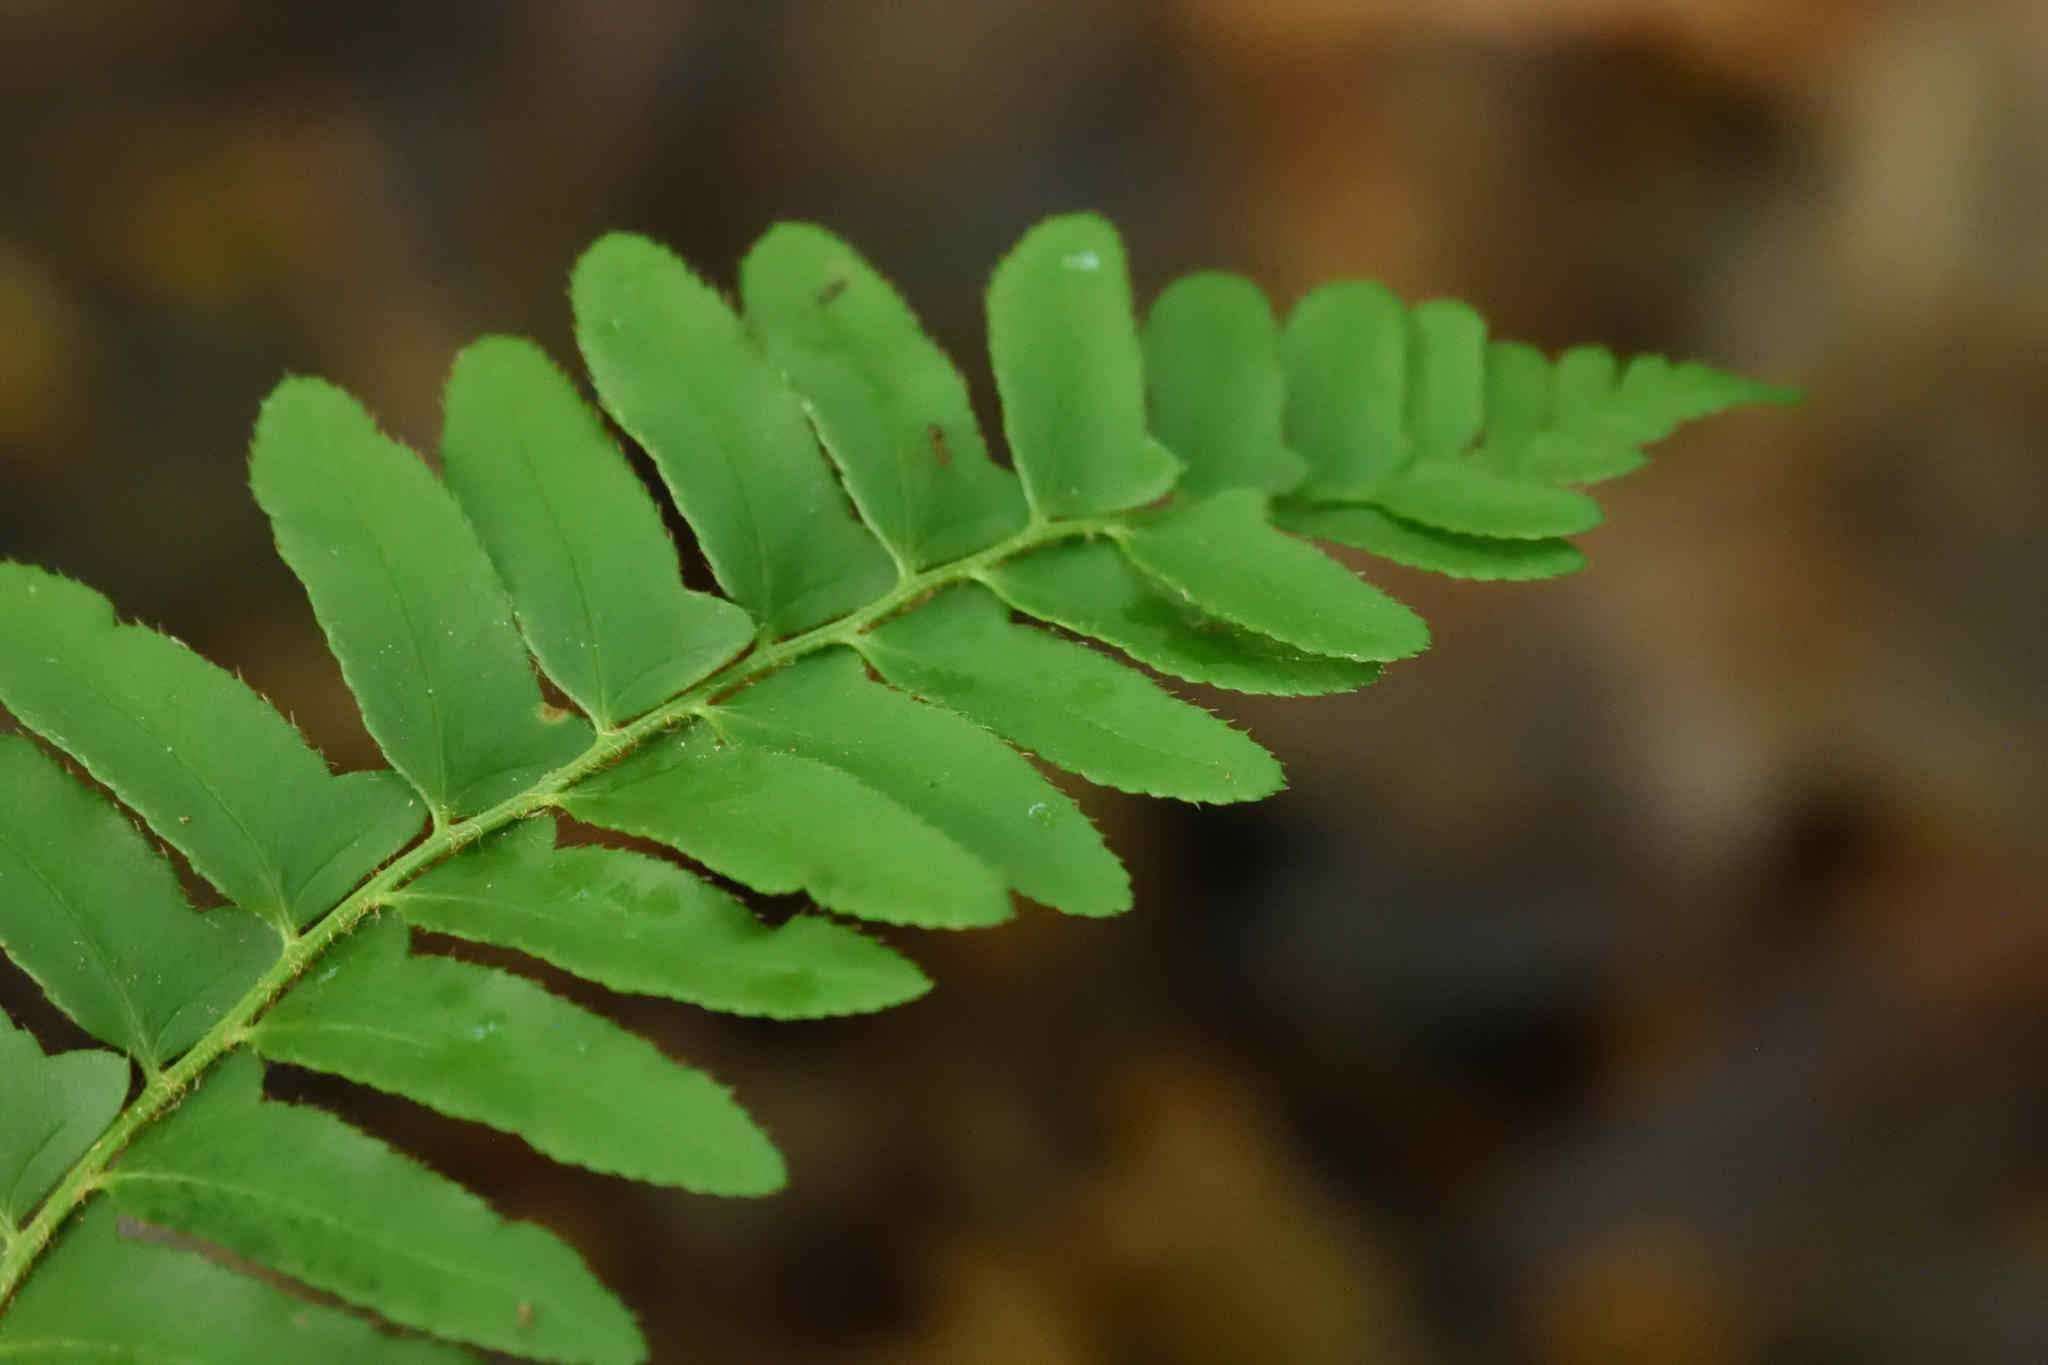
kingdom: Plantae
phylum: Tracheophyta
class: Polypodiopsida
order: Polypodiales
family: Dryopteridaceae
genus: Polystichum
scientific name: Polystichum acrostichoides
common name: Christmas fern
